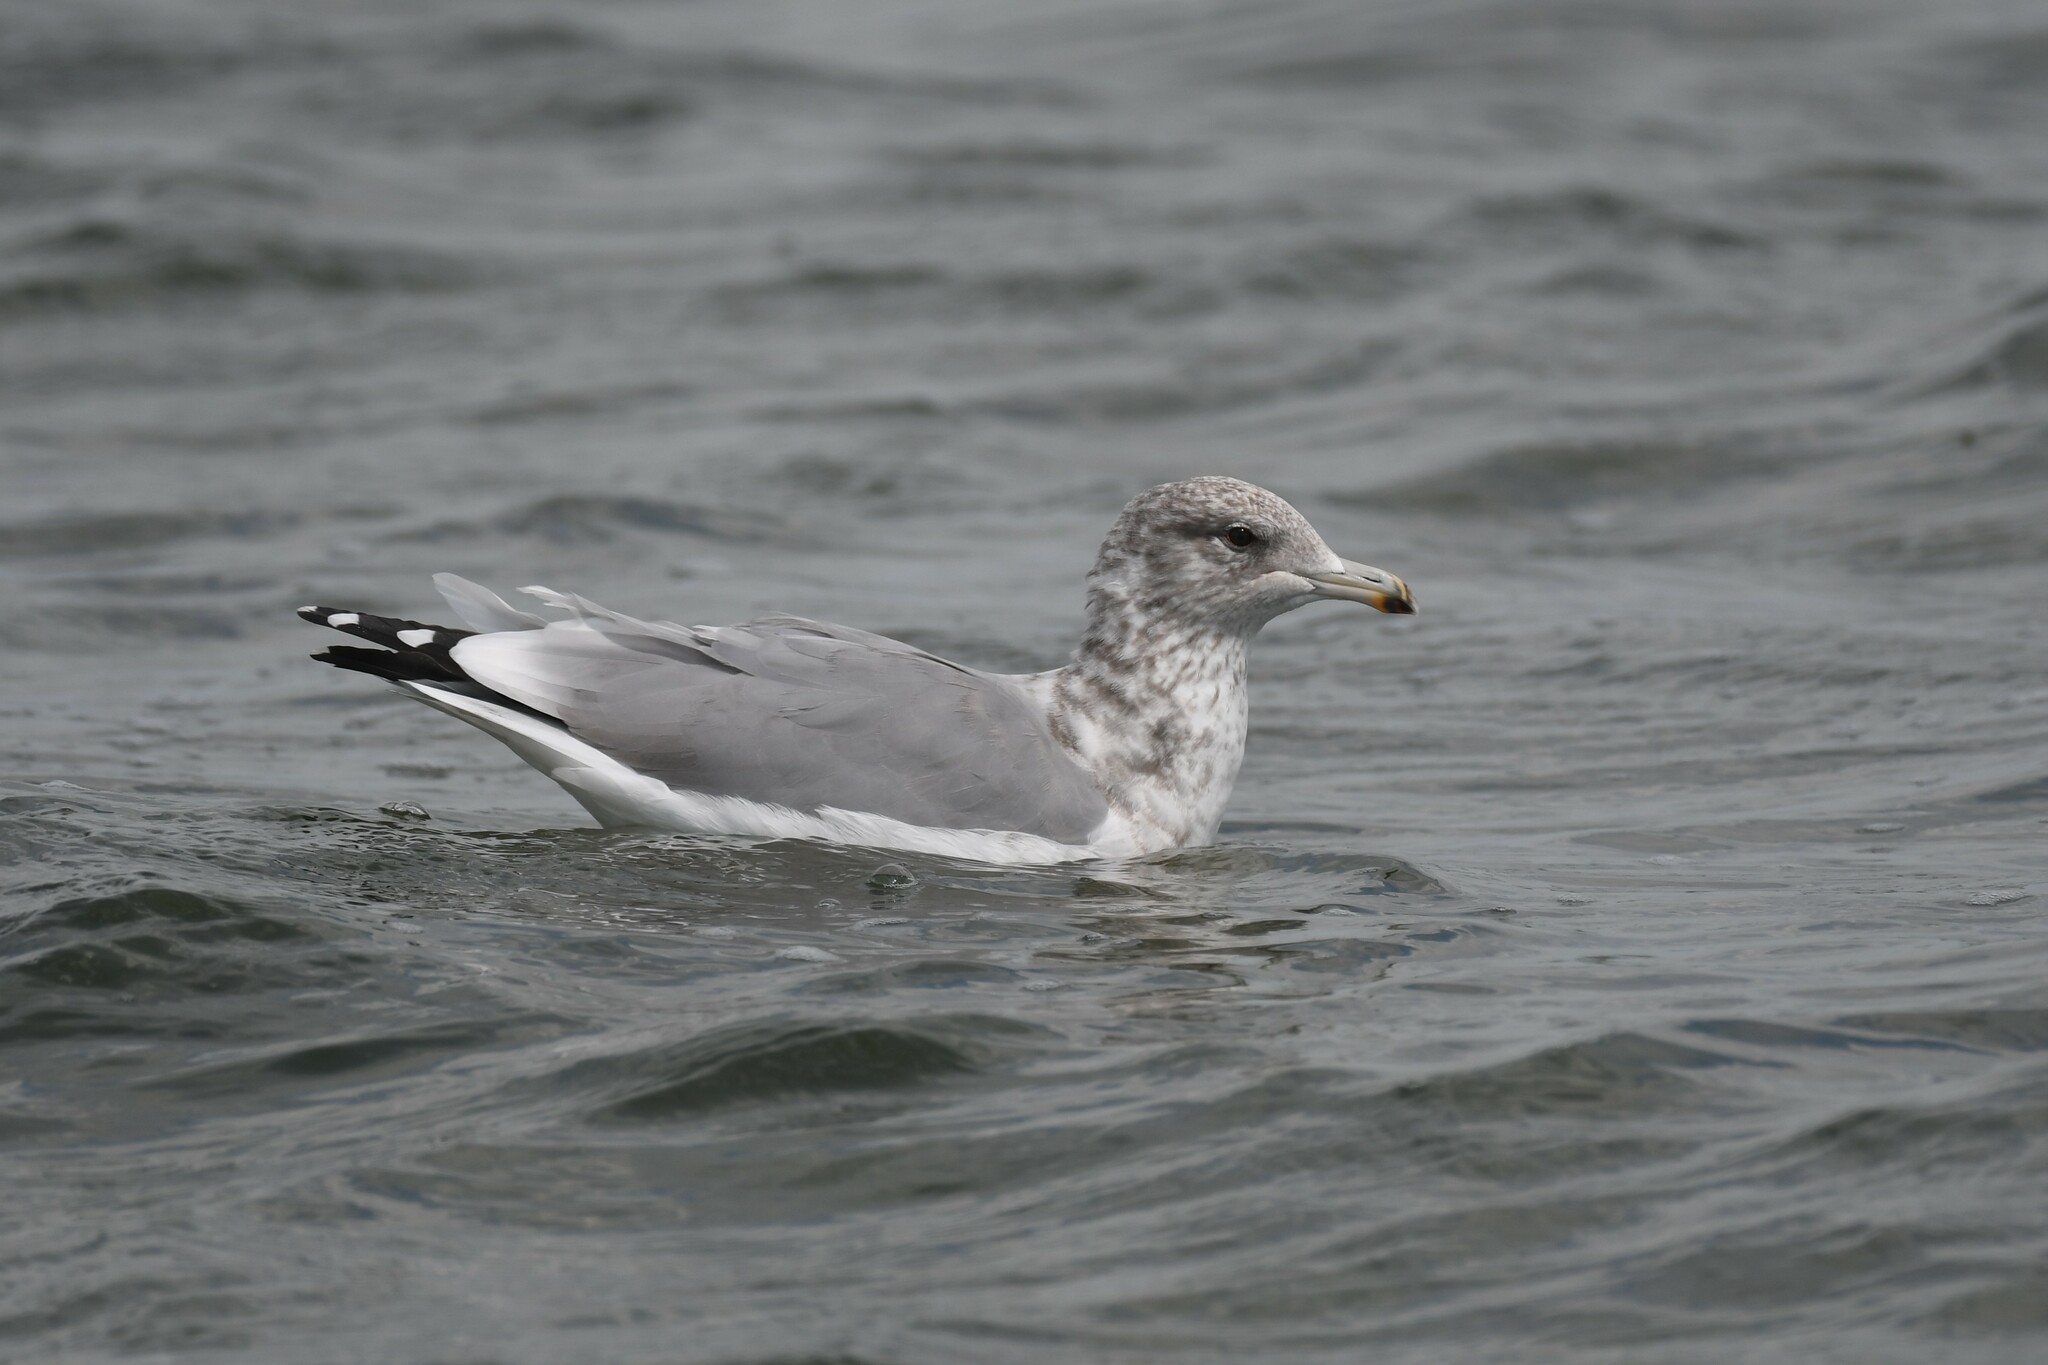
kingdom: Animalia
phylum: Chordata
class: Aves
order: Charadriiformes
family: Laridae
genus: Larus
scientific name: Larus californicus
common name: California gull
